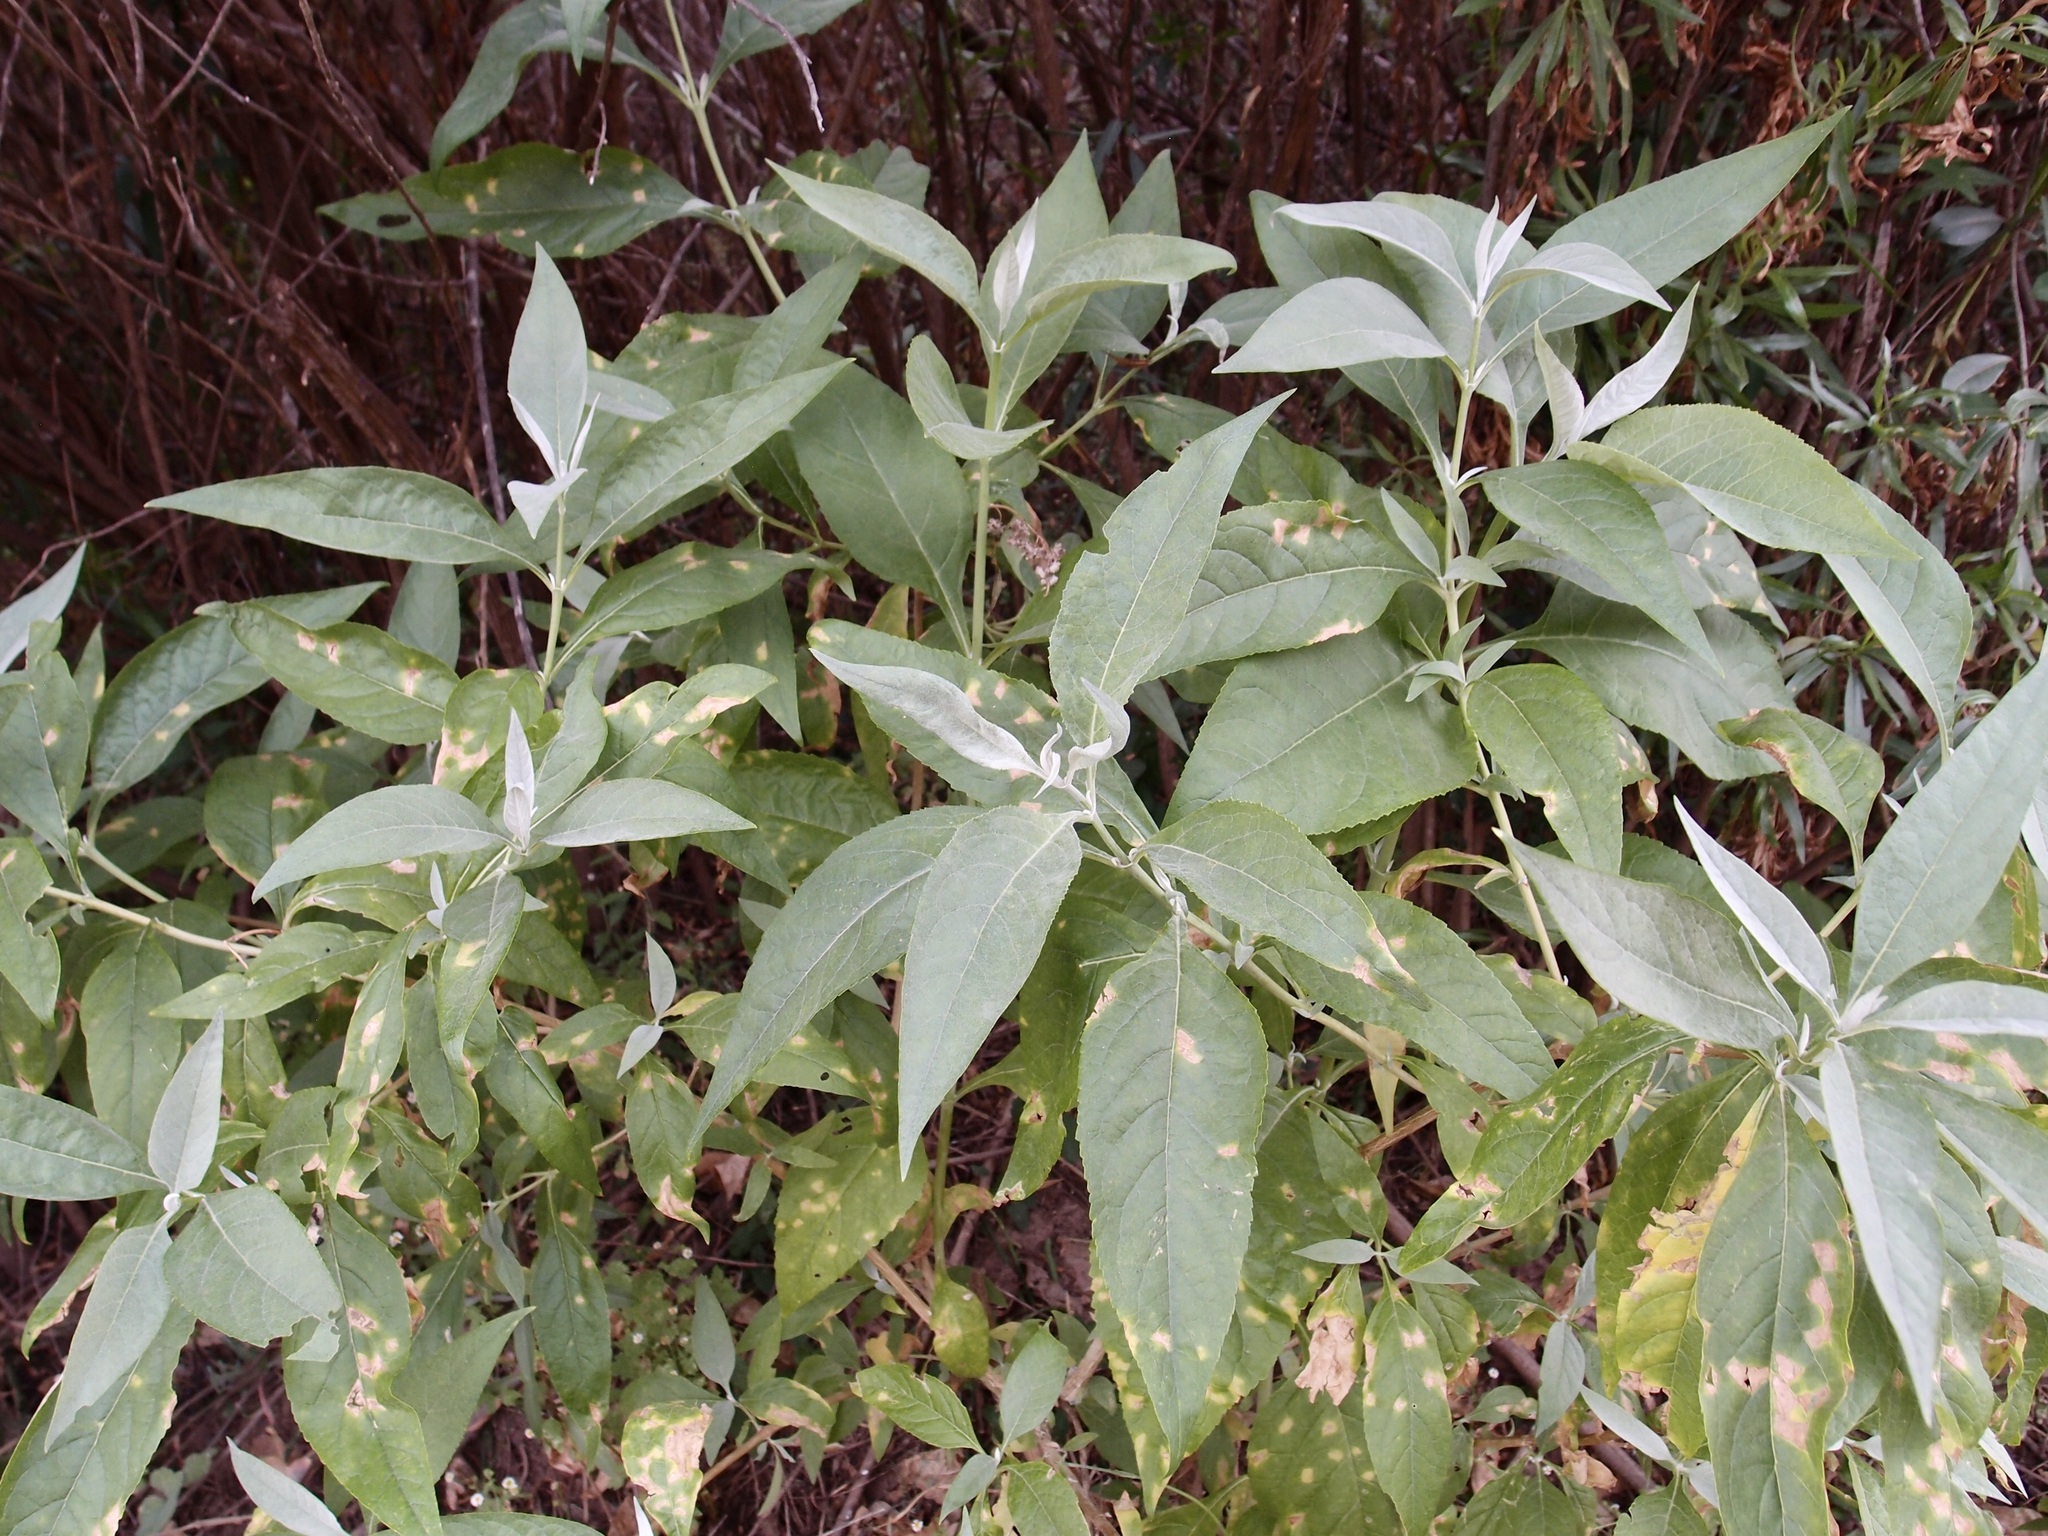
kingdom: Plantae
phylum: Tracheophyta
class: Magnoliopsida
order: Lamiales
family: Scrophulariaceae
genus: Buddleja
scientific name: Buddleja sessiliflora
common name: Rio grande butterfly-bush
